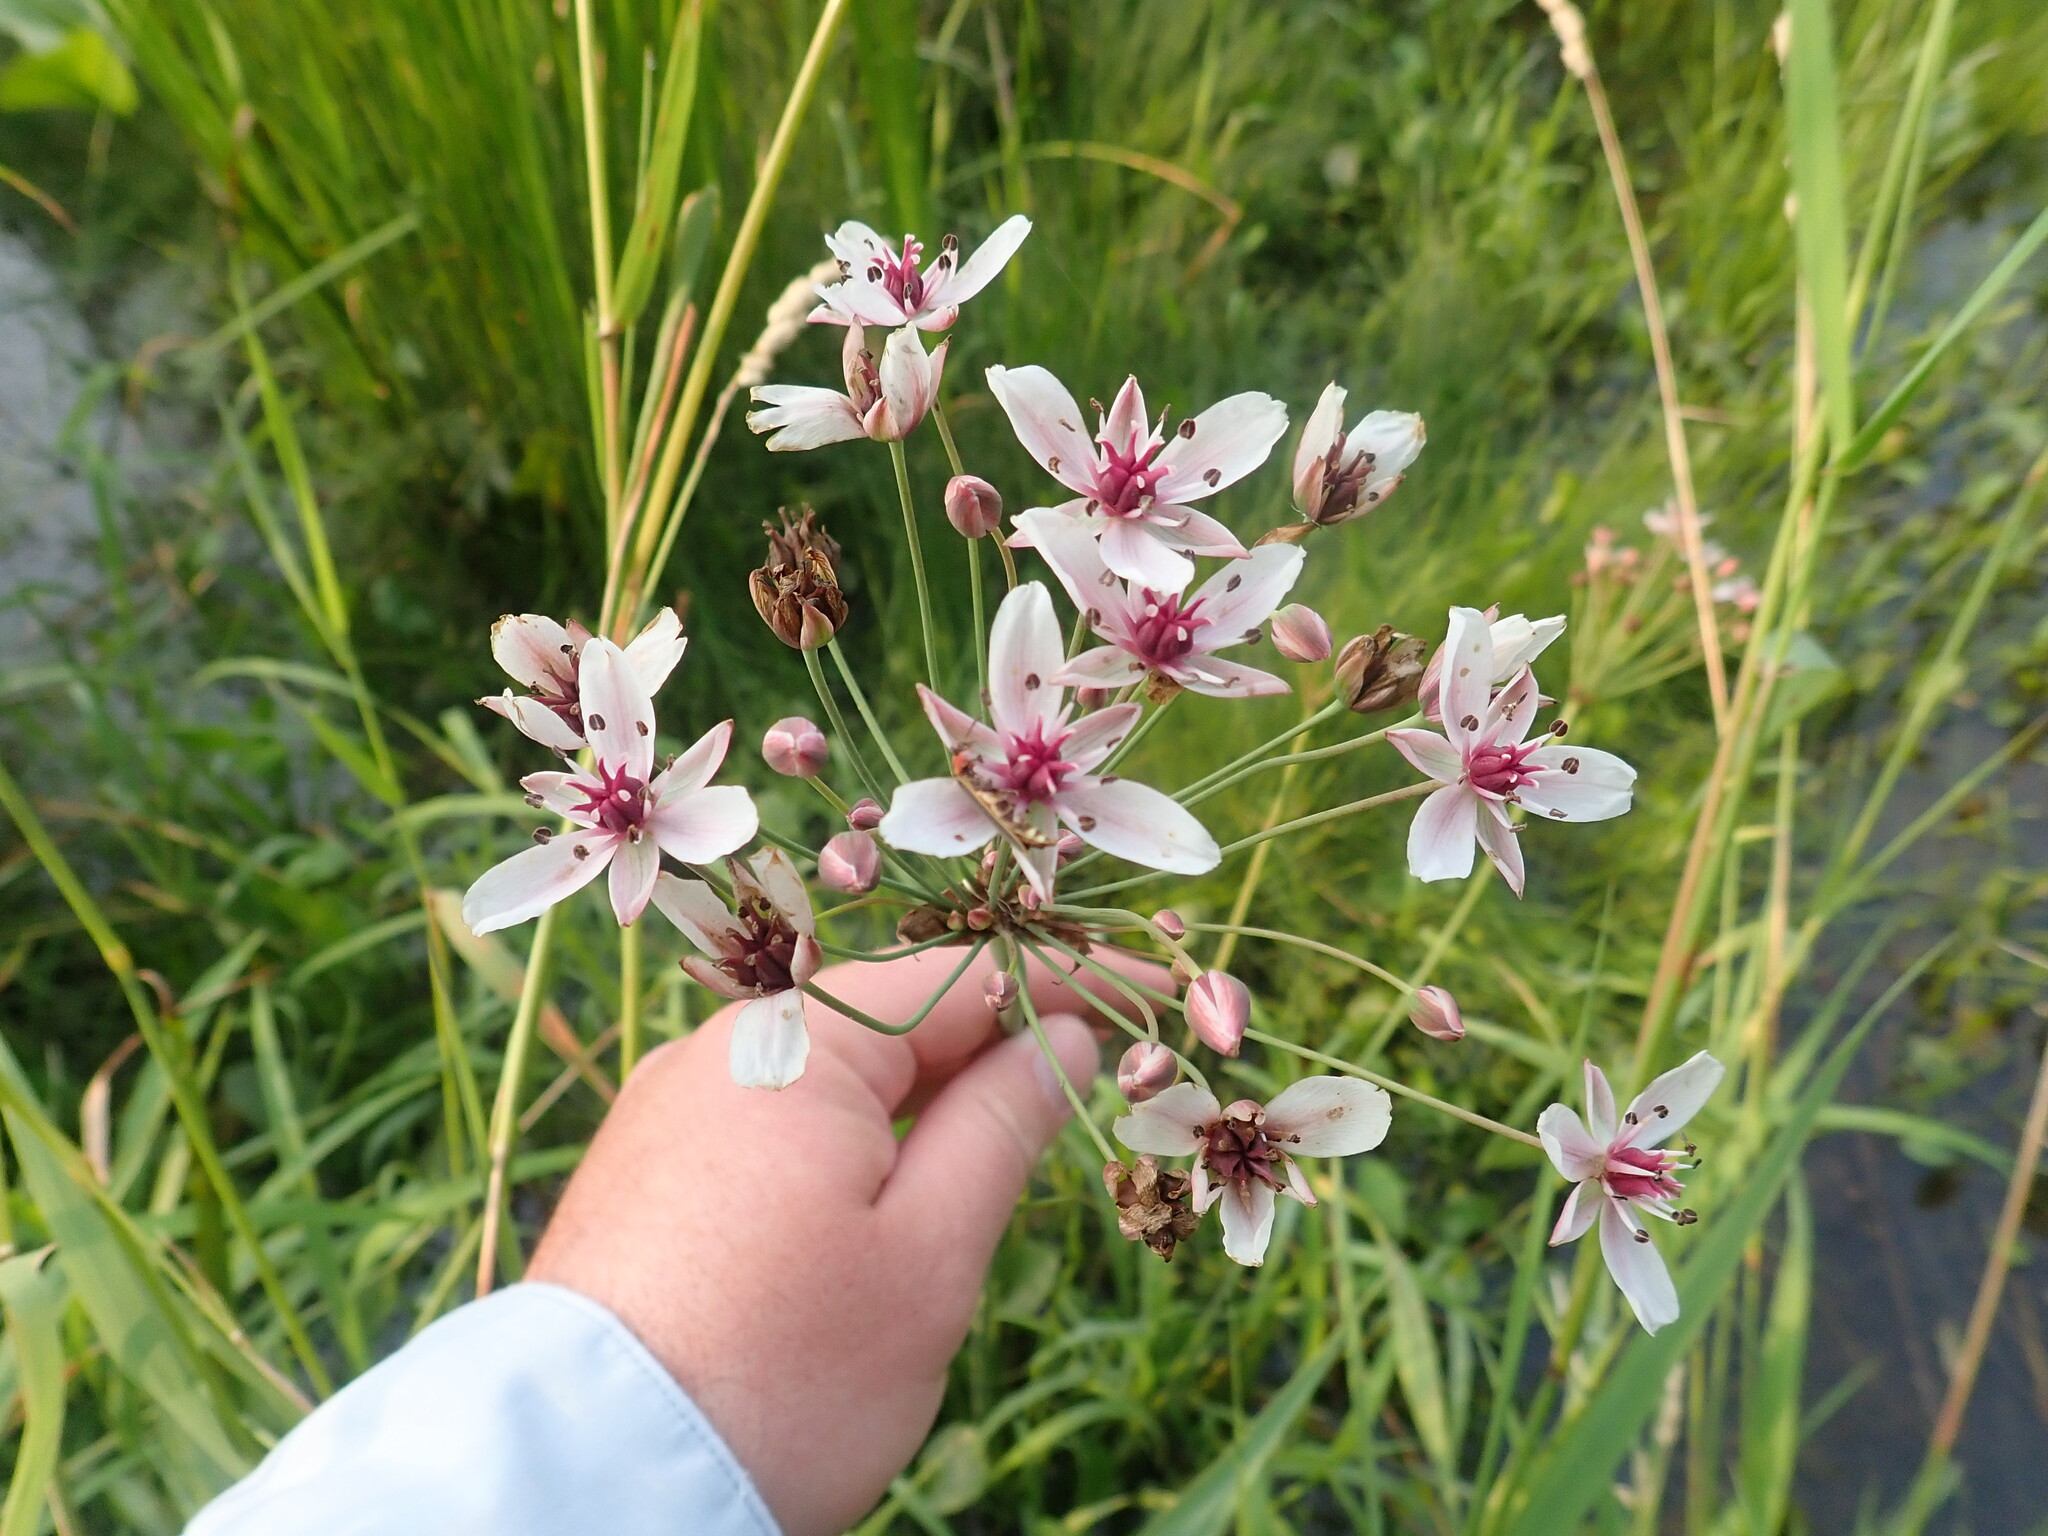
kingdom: Plantae
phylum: Tracheophyta
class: Liliopsida
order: Alismatales
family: Butomaceae
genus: Butomus
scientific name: Butomus umbellatus
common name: Flowering-rush
